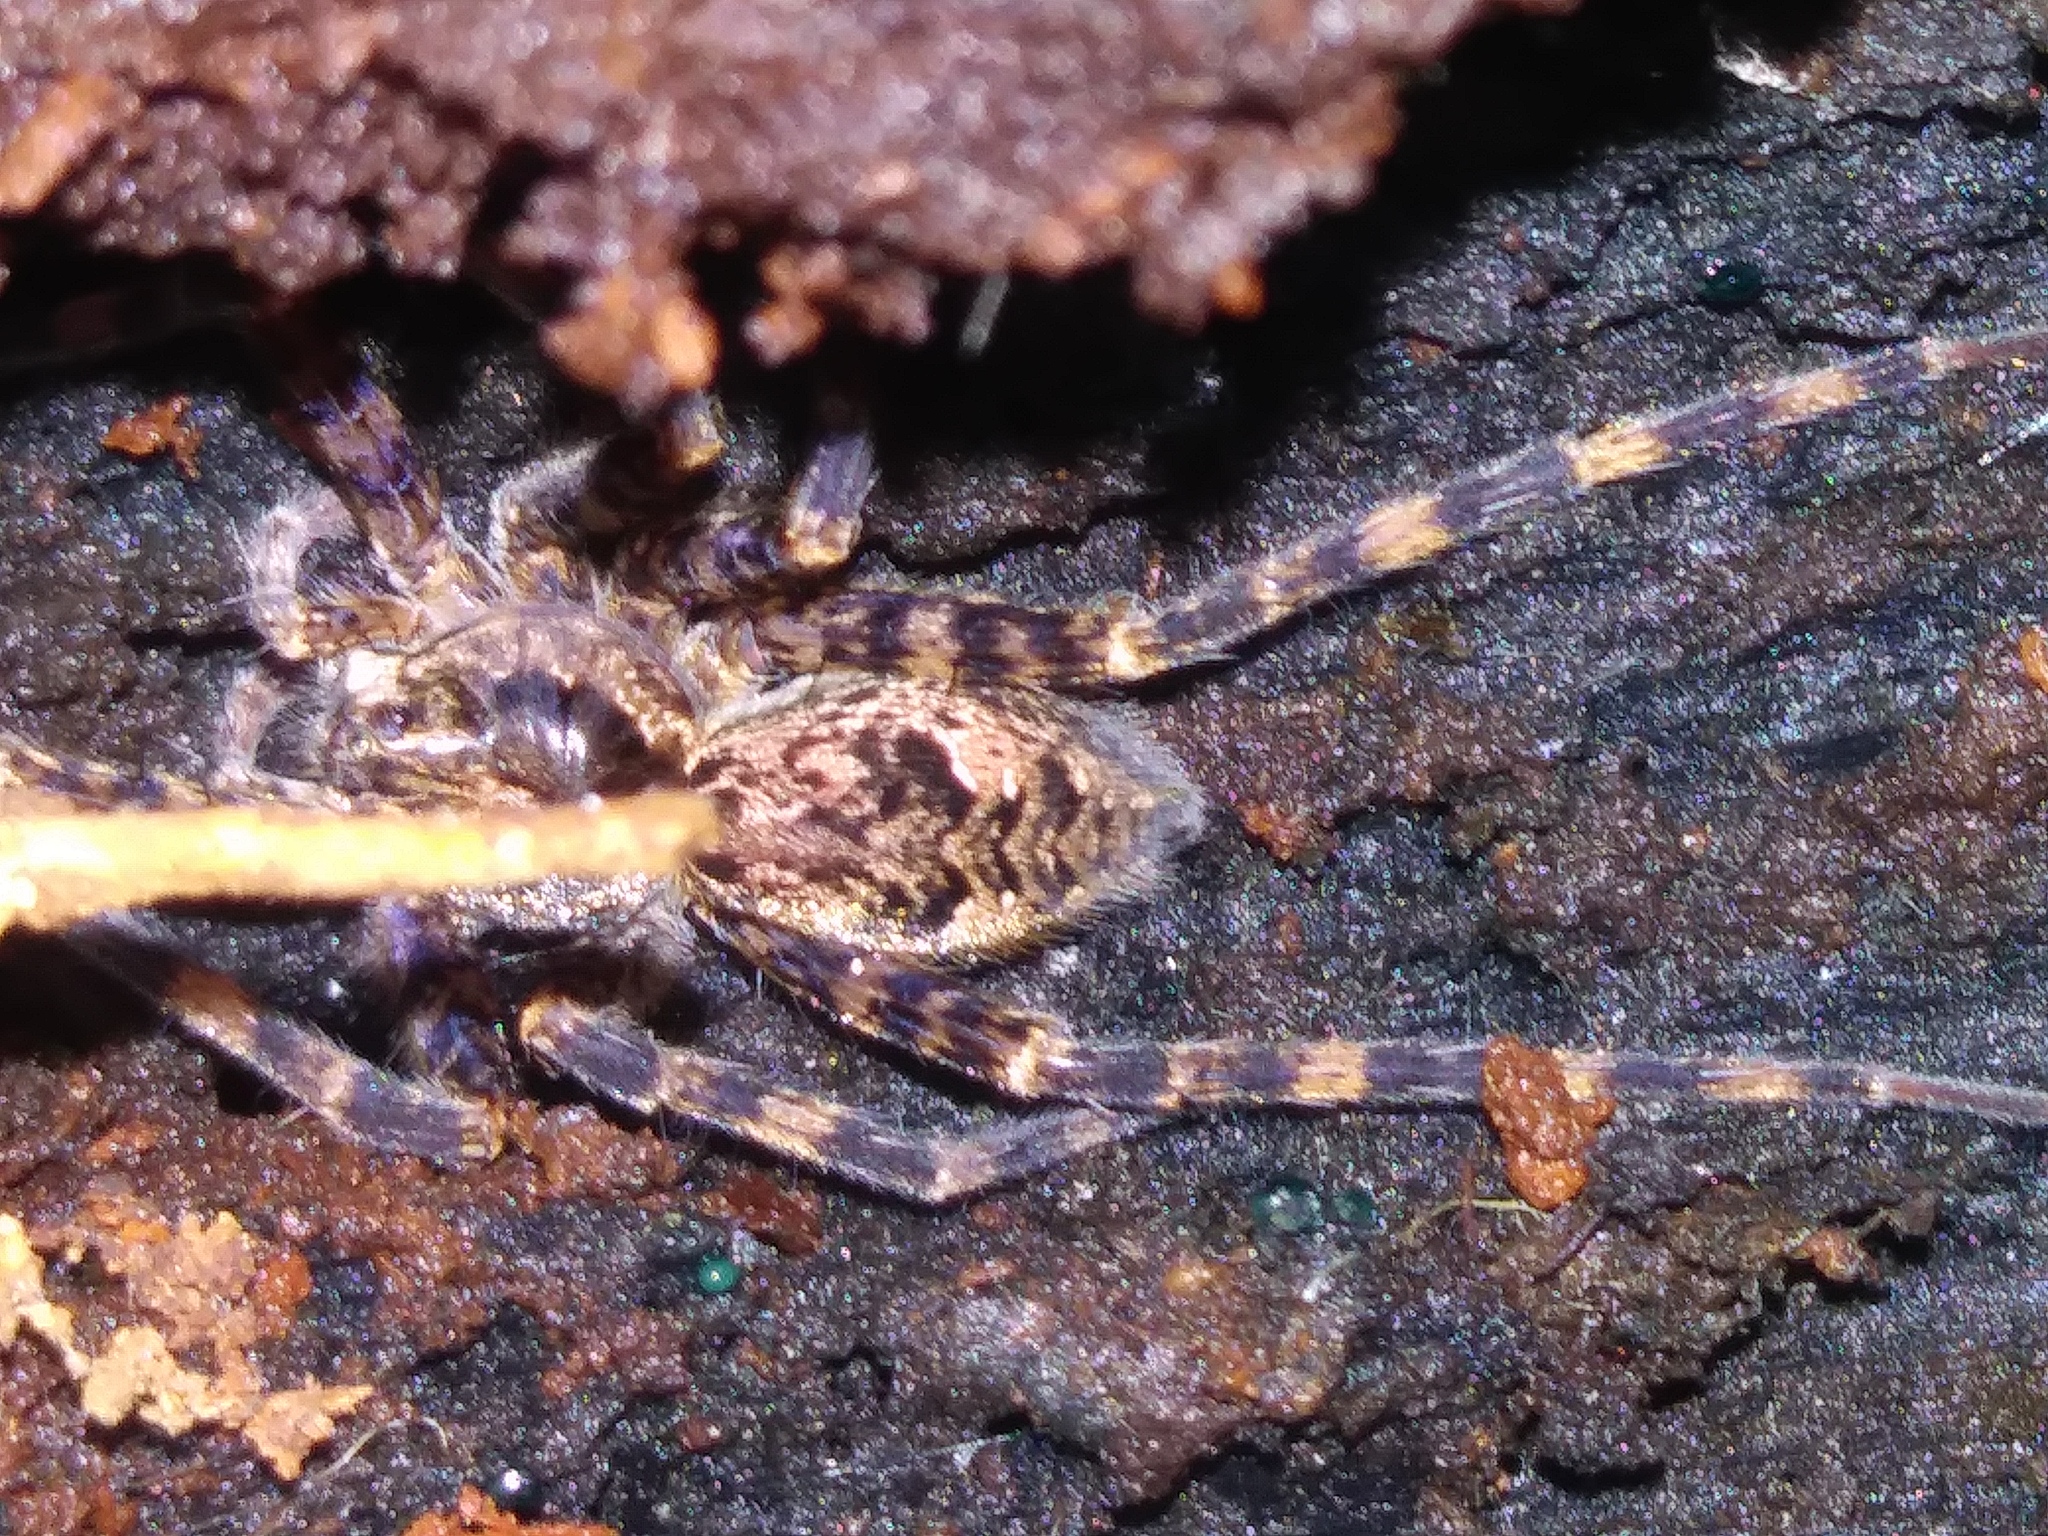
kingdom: Animalia
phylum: Arthropoda
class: Arachnida
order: Araneae
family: Pisauridae
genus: Dolomedes
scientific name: Dolomedes tenebrosus
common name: Dark fishing spider
